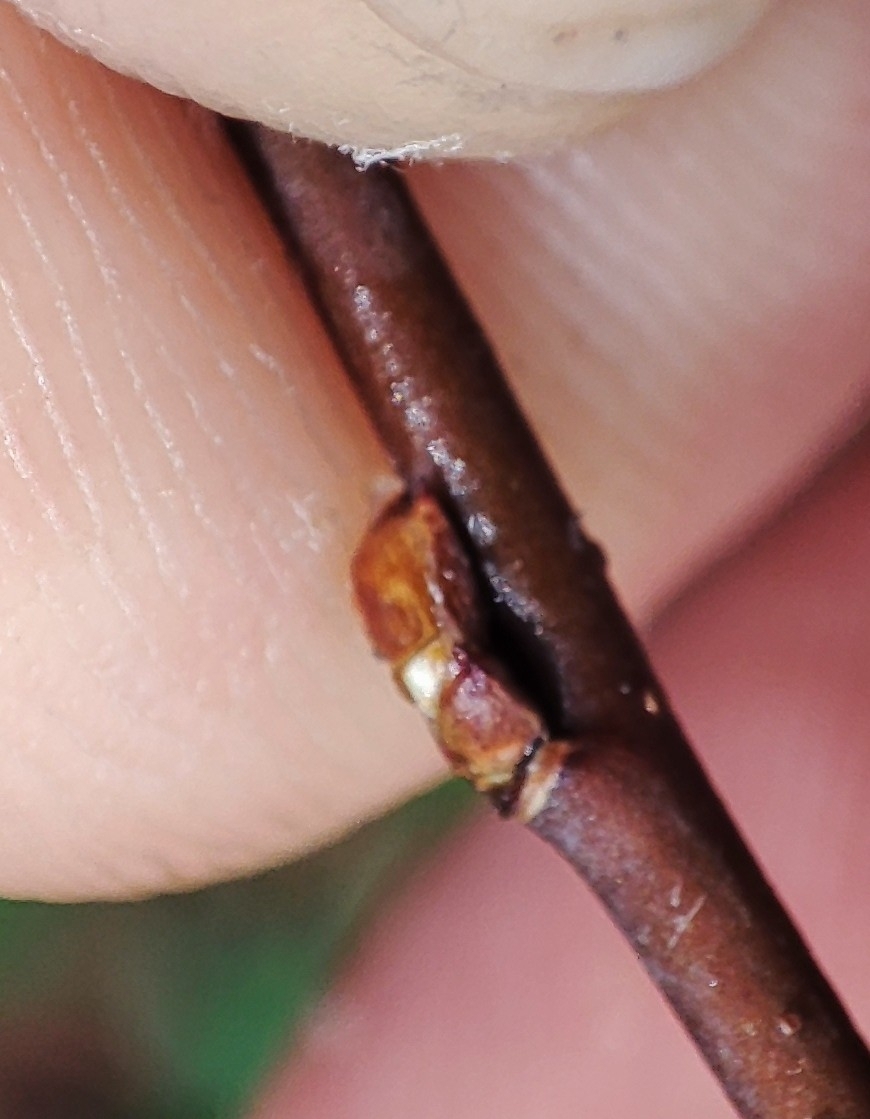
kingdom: Plantae
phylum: Tracheophyta
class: Magnoliopsida
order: Rosales
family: Rosaceae
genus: Amelanchier
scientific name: Amelanchier alnifolia
